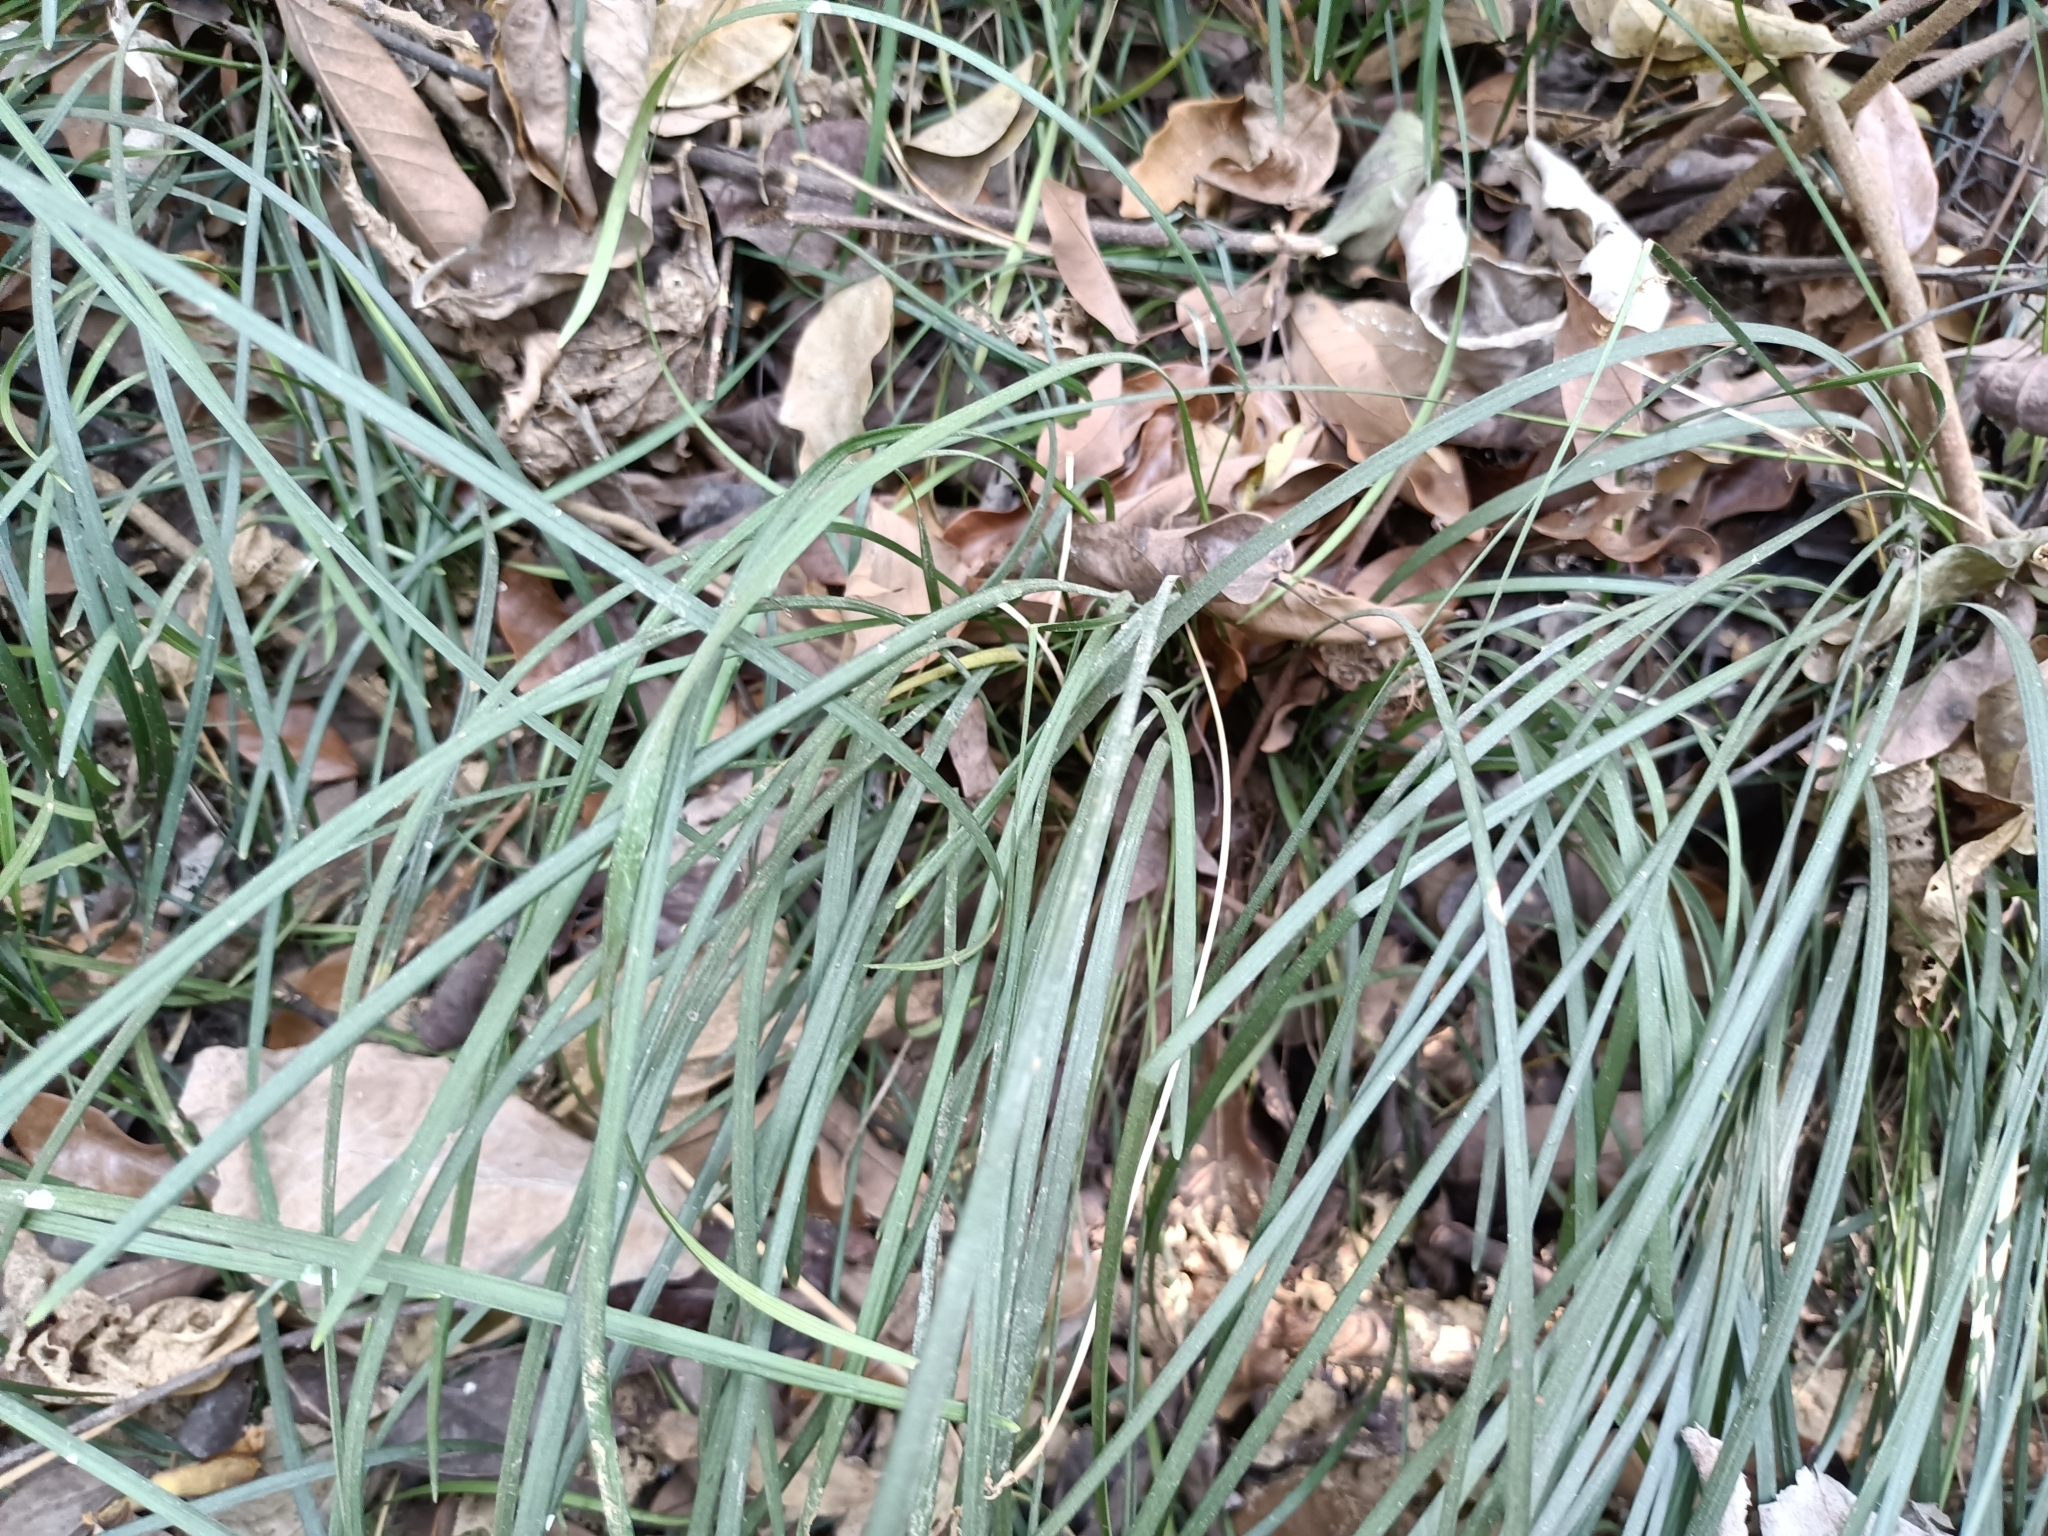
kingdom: Plantae
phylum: Tracheophyta
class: Liliopsida
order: Asparagales
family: Asparagaceae
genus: Liriope
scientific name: Liriope graminifolia
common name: Lilyturf
